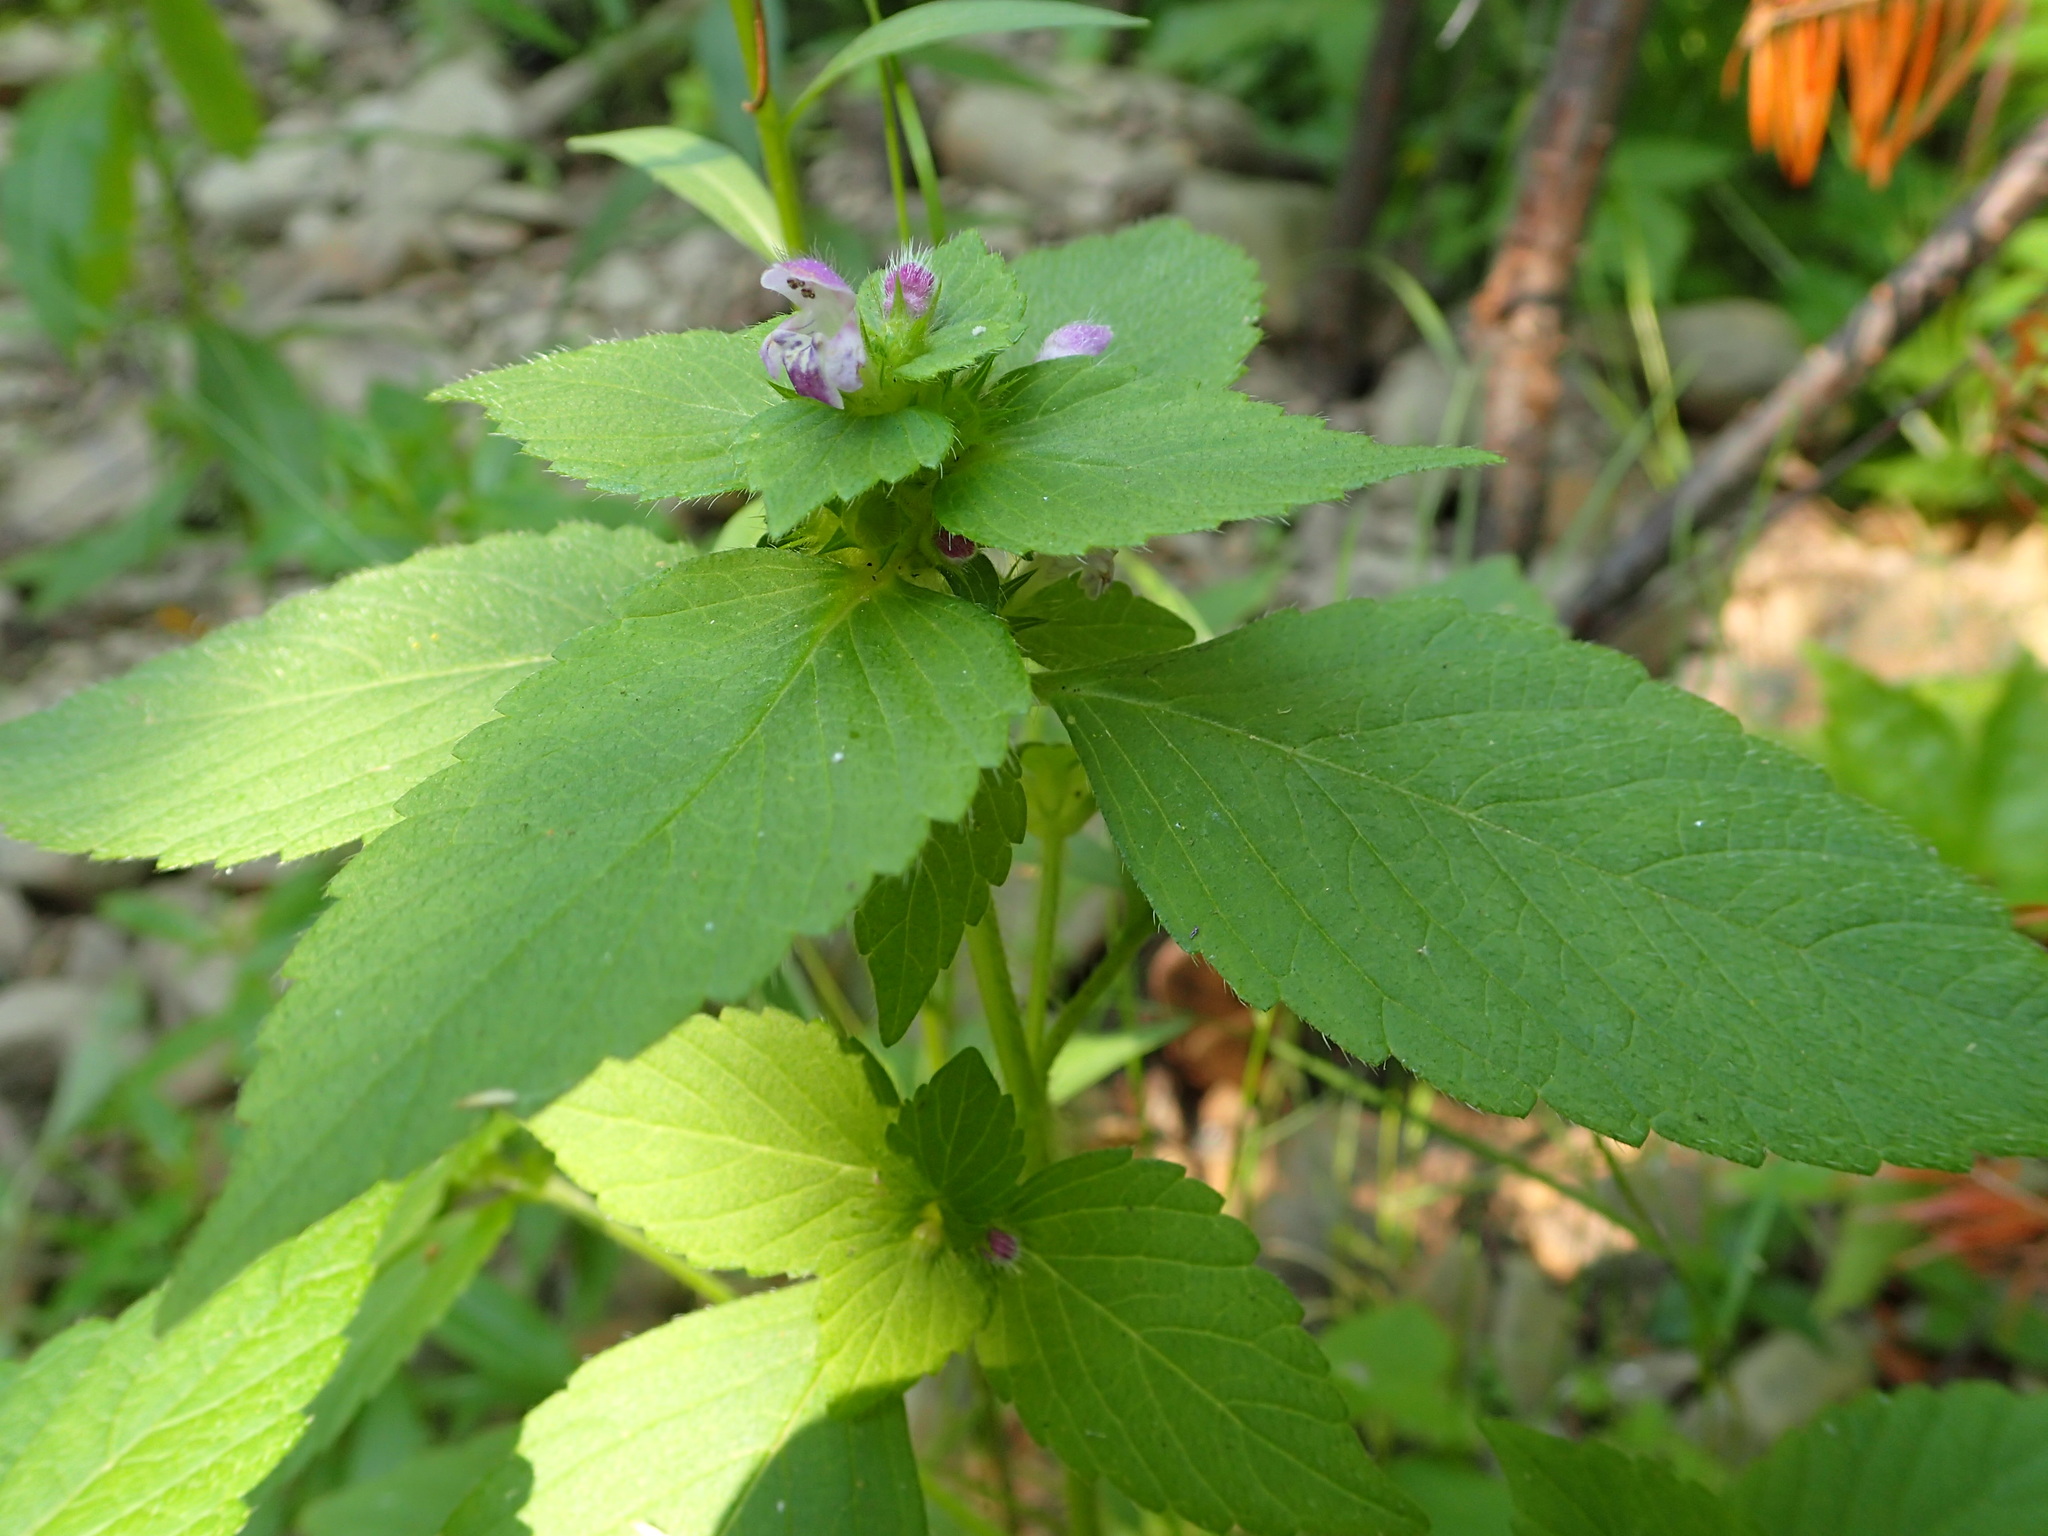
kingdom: Plantae
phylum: Tracheophyta
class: Magnoliopsida
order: Lamiales
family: Lamiaceae
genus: Galeopsis
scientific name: Galeopsis tetrahit
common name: Common hemp-nettle
